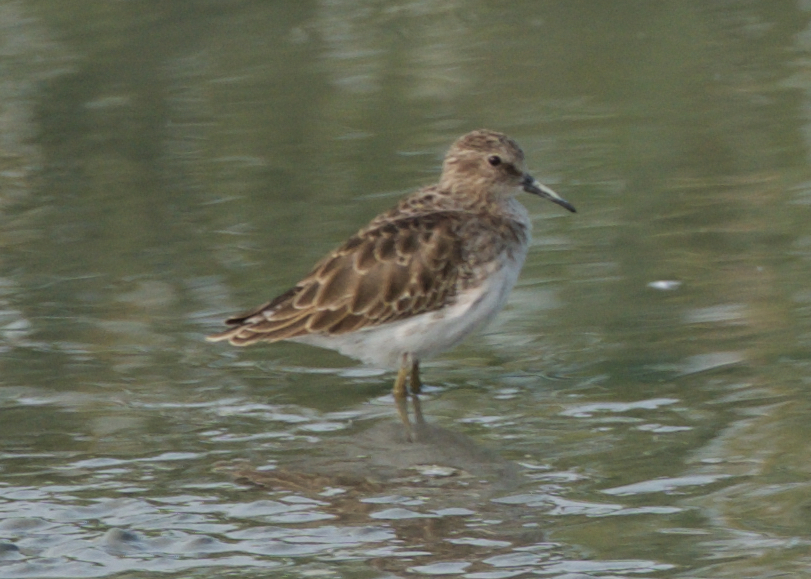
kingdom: Animalia
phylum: Chordata
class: Aves
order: Charadriiformes
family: Scolopacidae
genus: Calidris
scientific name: Calidris minutilla
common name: Least sandpiper
